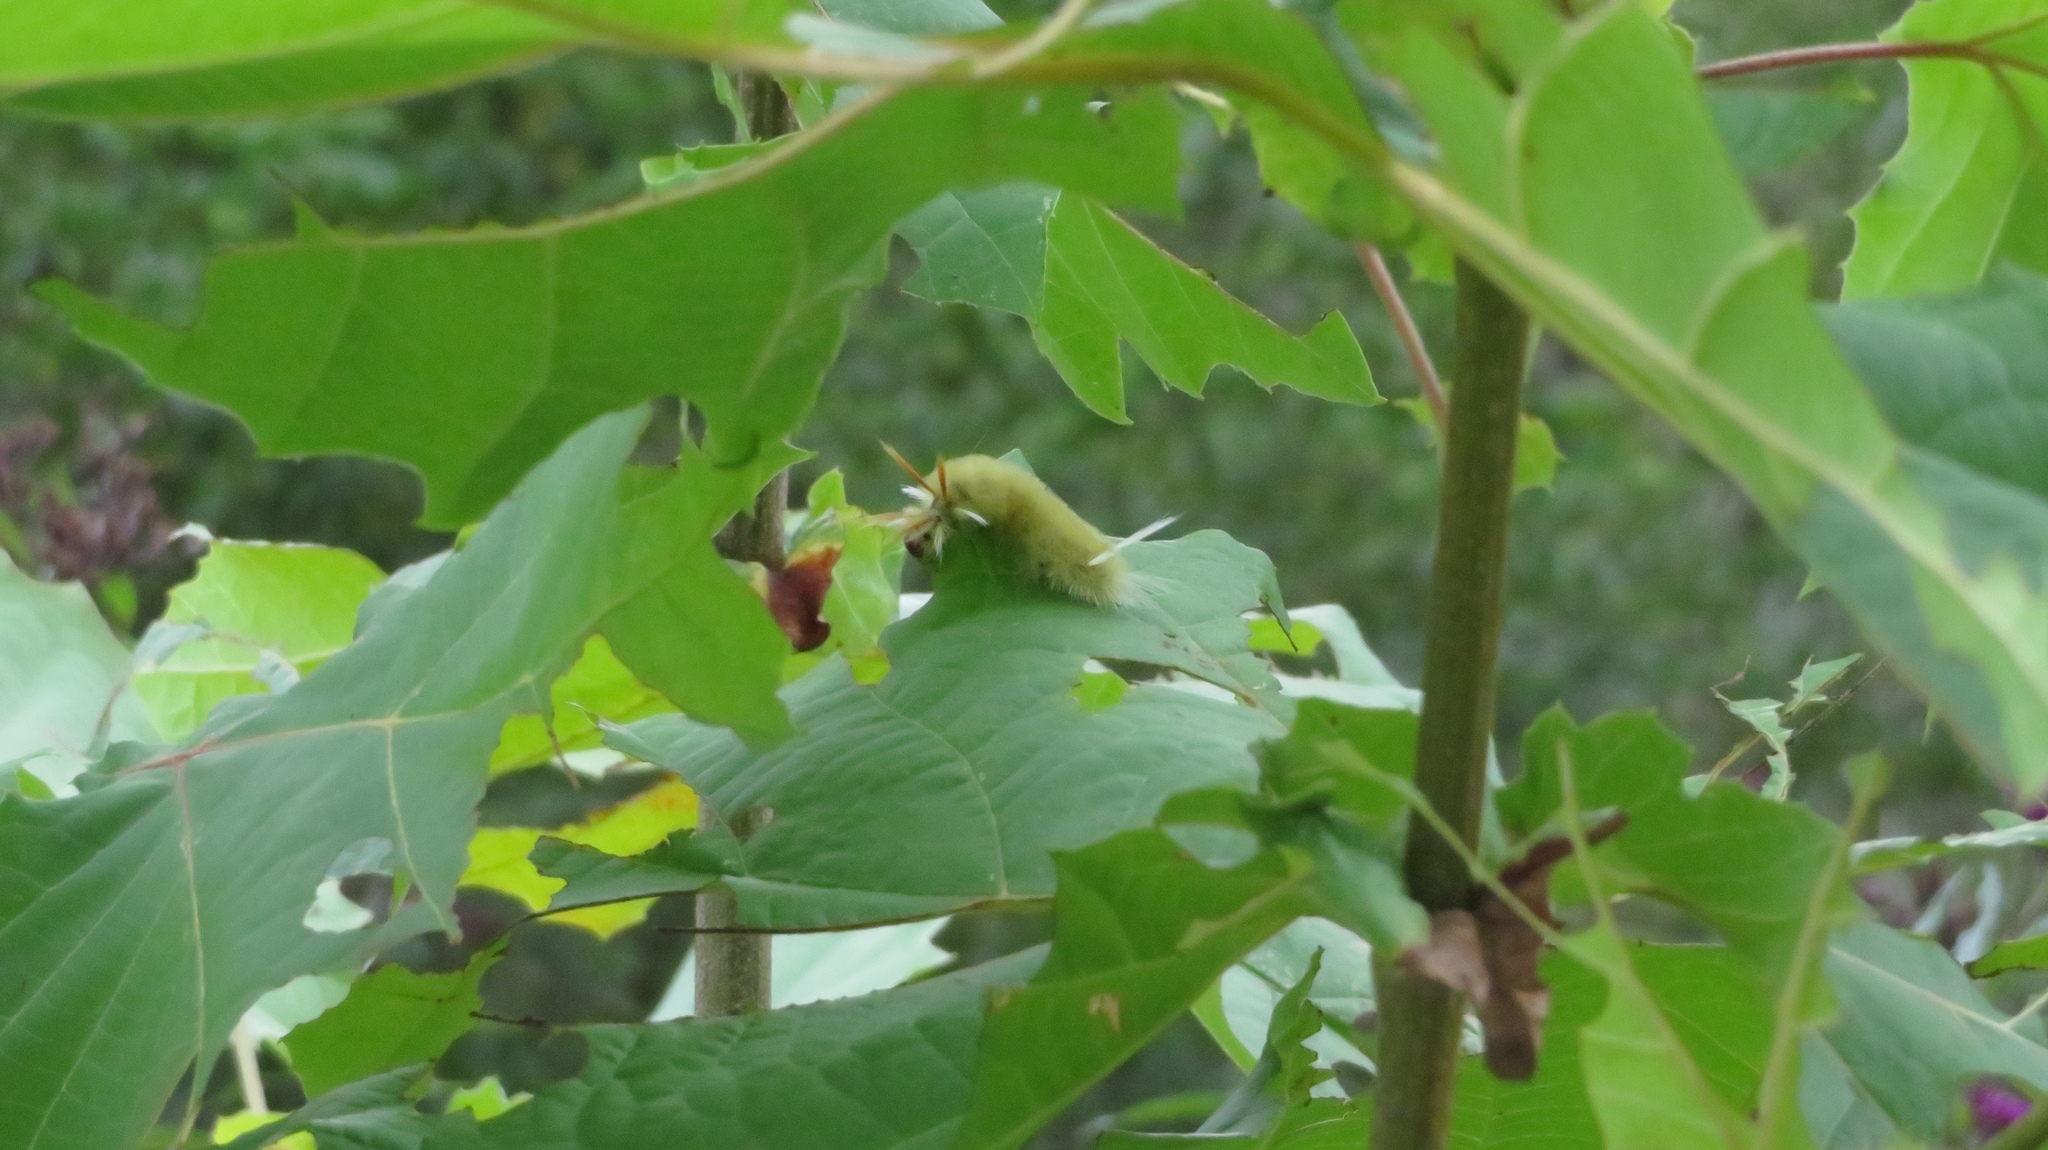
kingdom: Animalia
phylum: Arthropoda
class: Insecta
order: Lepidoptera
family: Erebidae
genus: Halysidota
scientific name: Halysidota harrisii
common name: Sycamore tussock moth
